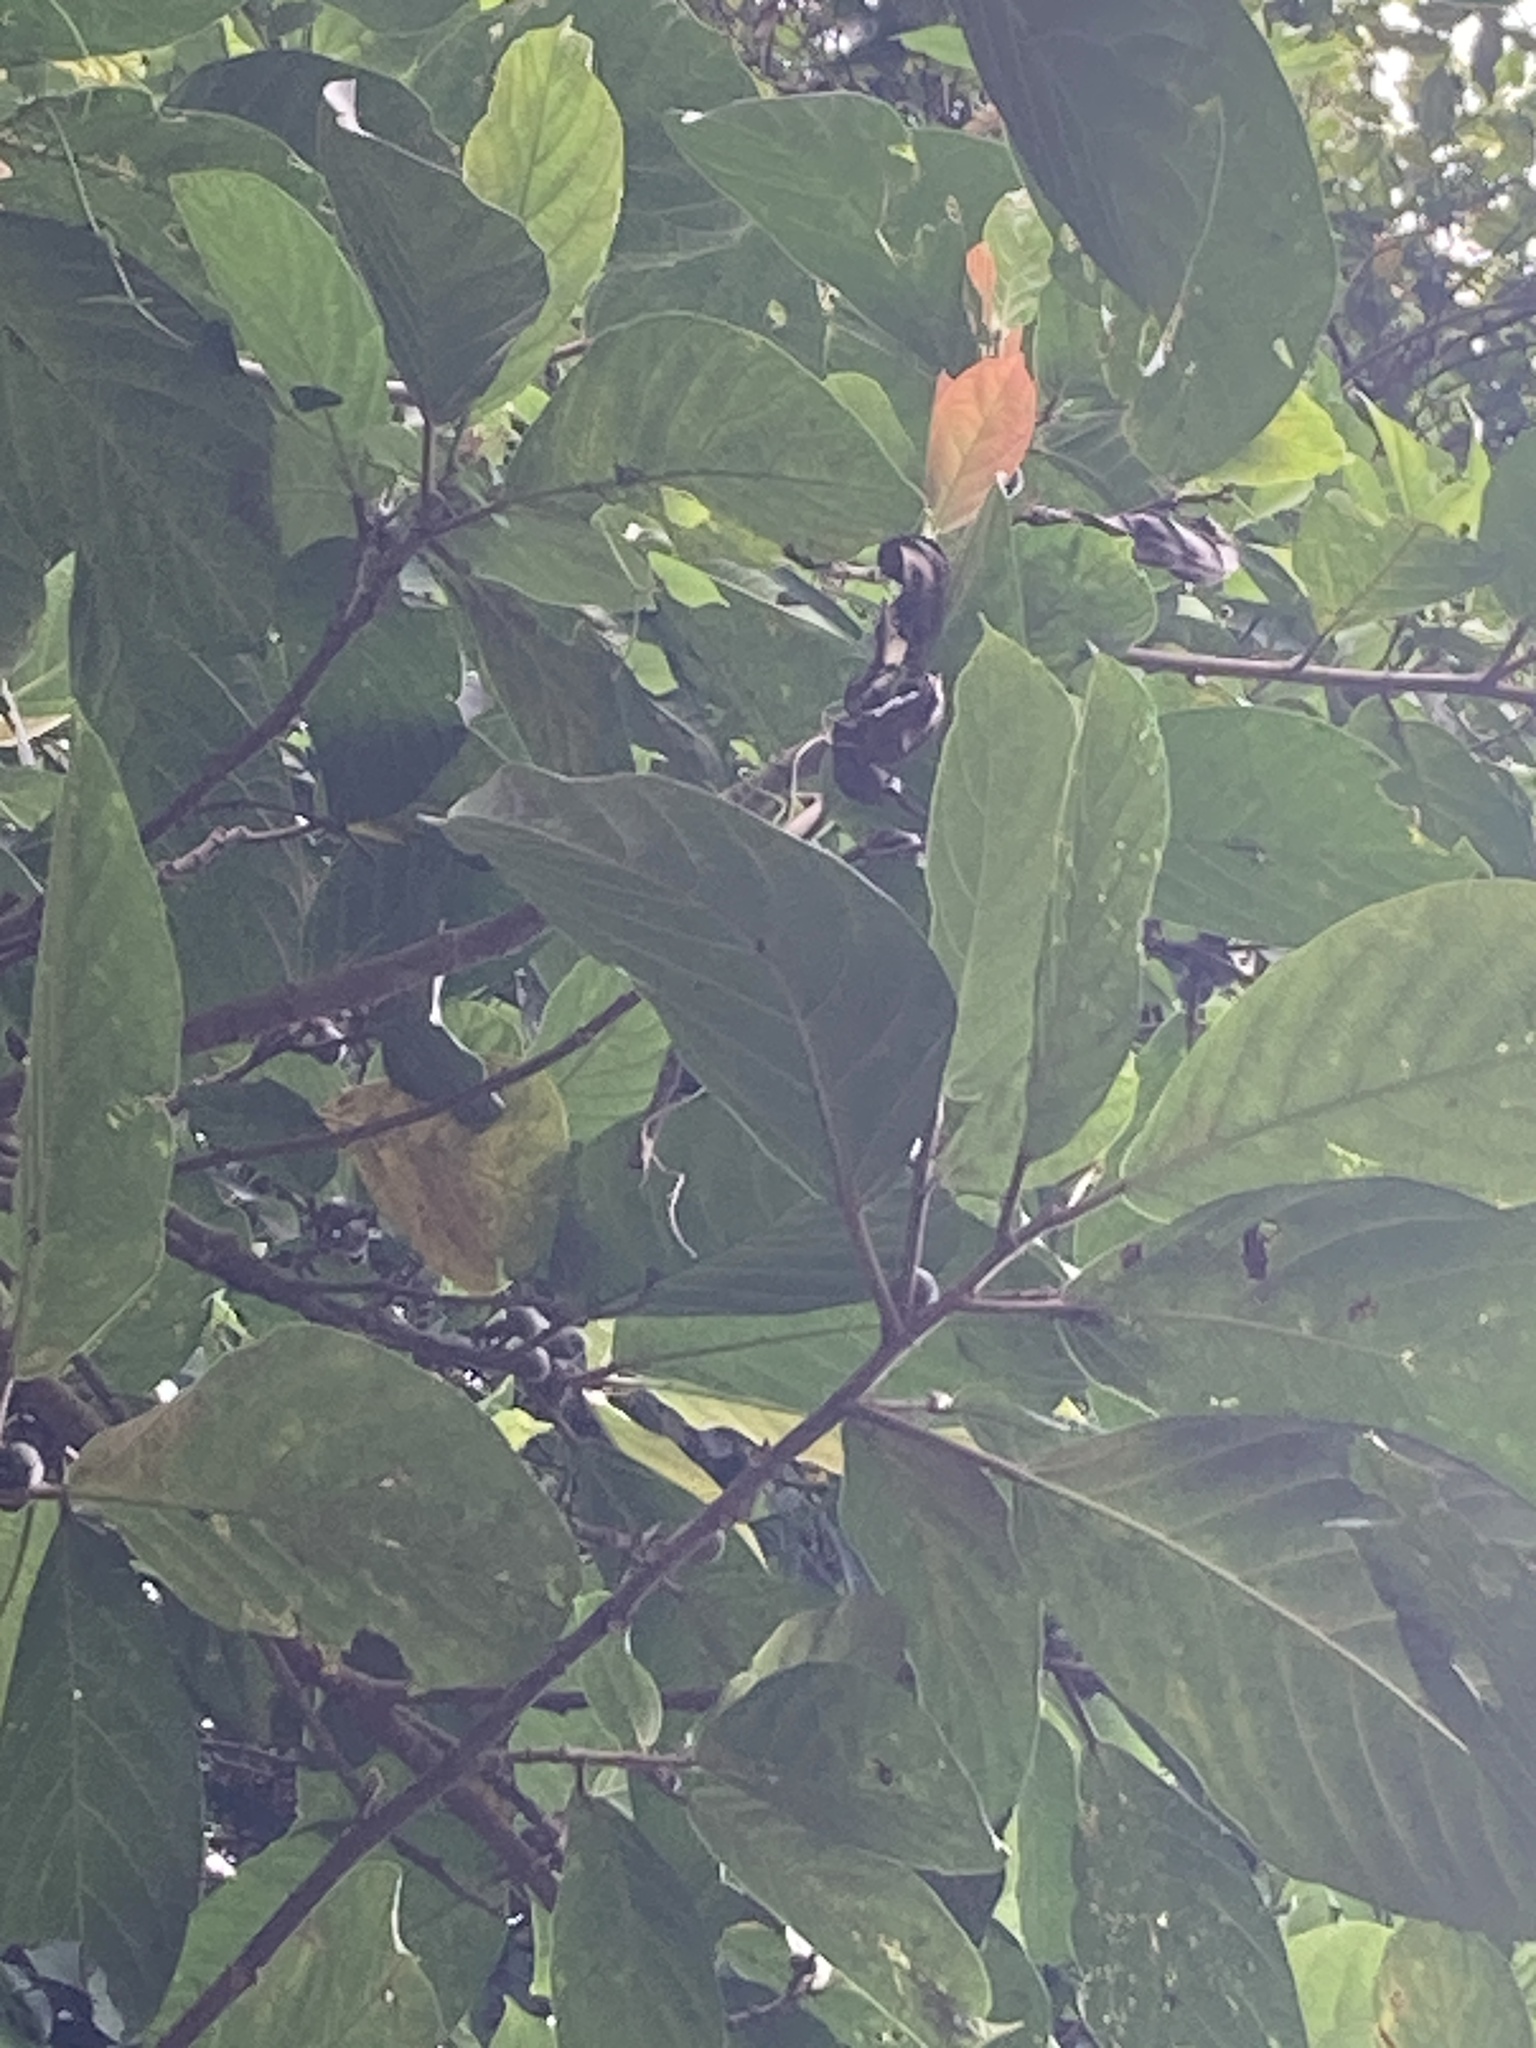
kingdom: Plantae
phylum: Tracheophyta
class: Magnoliopsida
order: Rosales
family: Moraceae
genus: Ficus
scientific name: Ficus benguetensis
